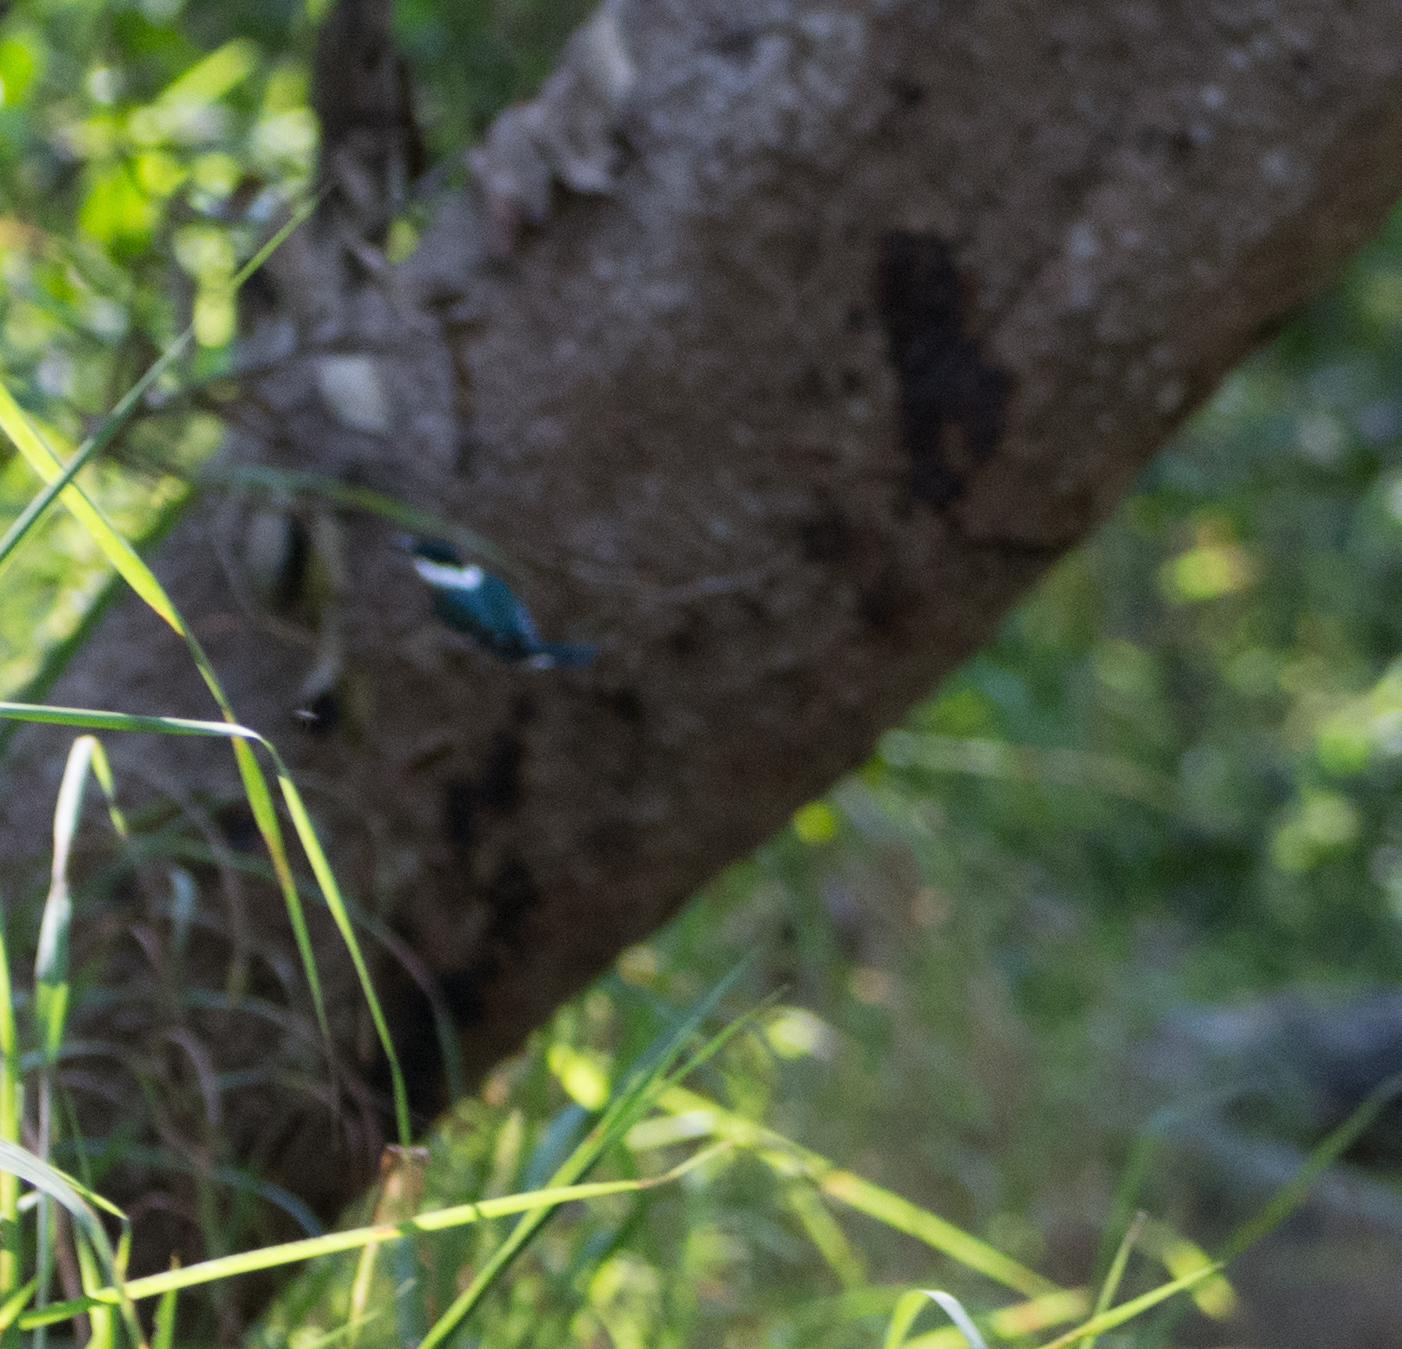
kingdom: Animalia
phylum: Chordata
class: Aves
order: Coraciiformes
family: Alcedinidae
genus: Chloroceryle
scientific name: Chloroceryle americana
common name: Green kingfisher
